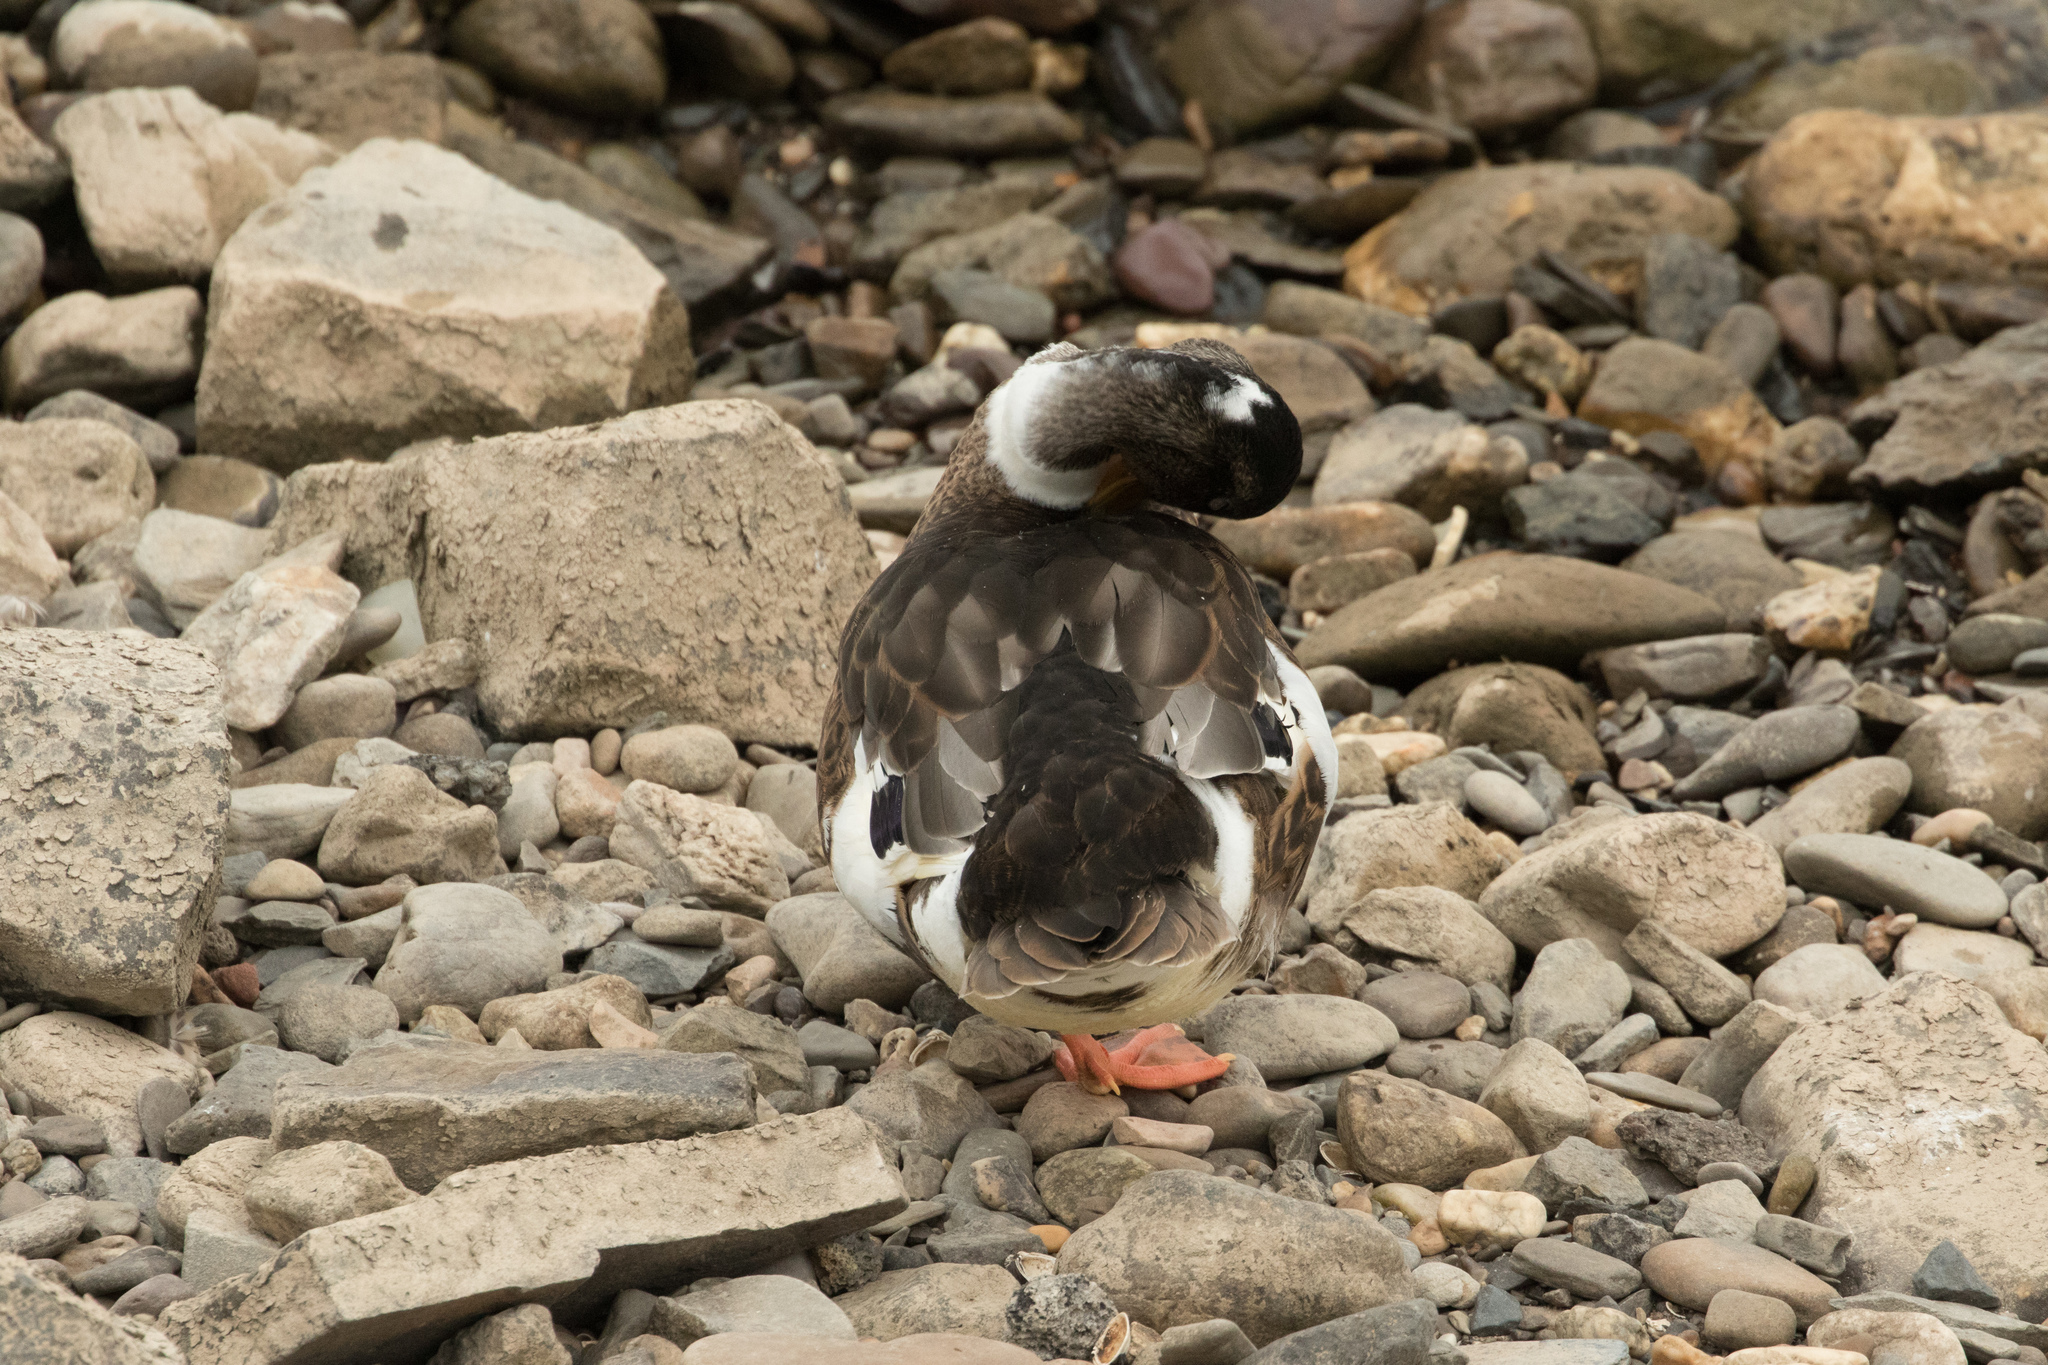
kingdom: Animalia
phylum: Chordata
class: Aves
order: Anseriformes
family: Anatidae
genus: Anas
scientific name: Anas platyrhynchos
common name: Mallard
